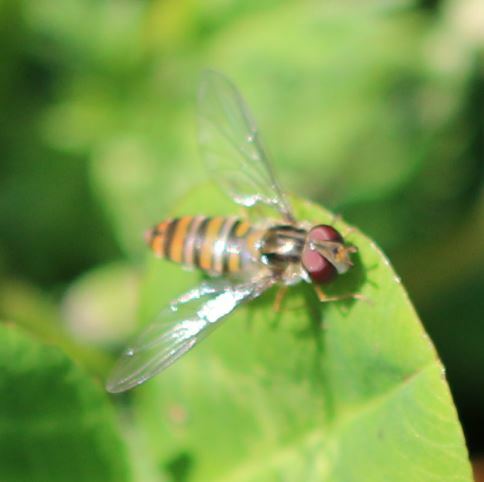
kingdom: Animalia
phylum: Arthropoda
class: Insecta
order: Diptera
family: Syrphidae
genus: Episyrphus
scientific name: Episyrphus balteatus
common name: Marmalade hoverfly
